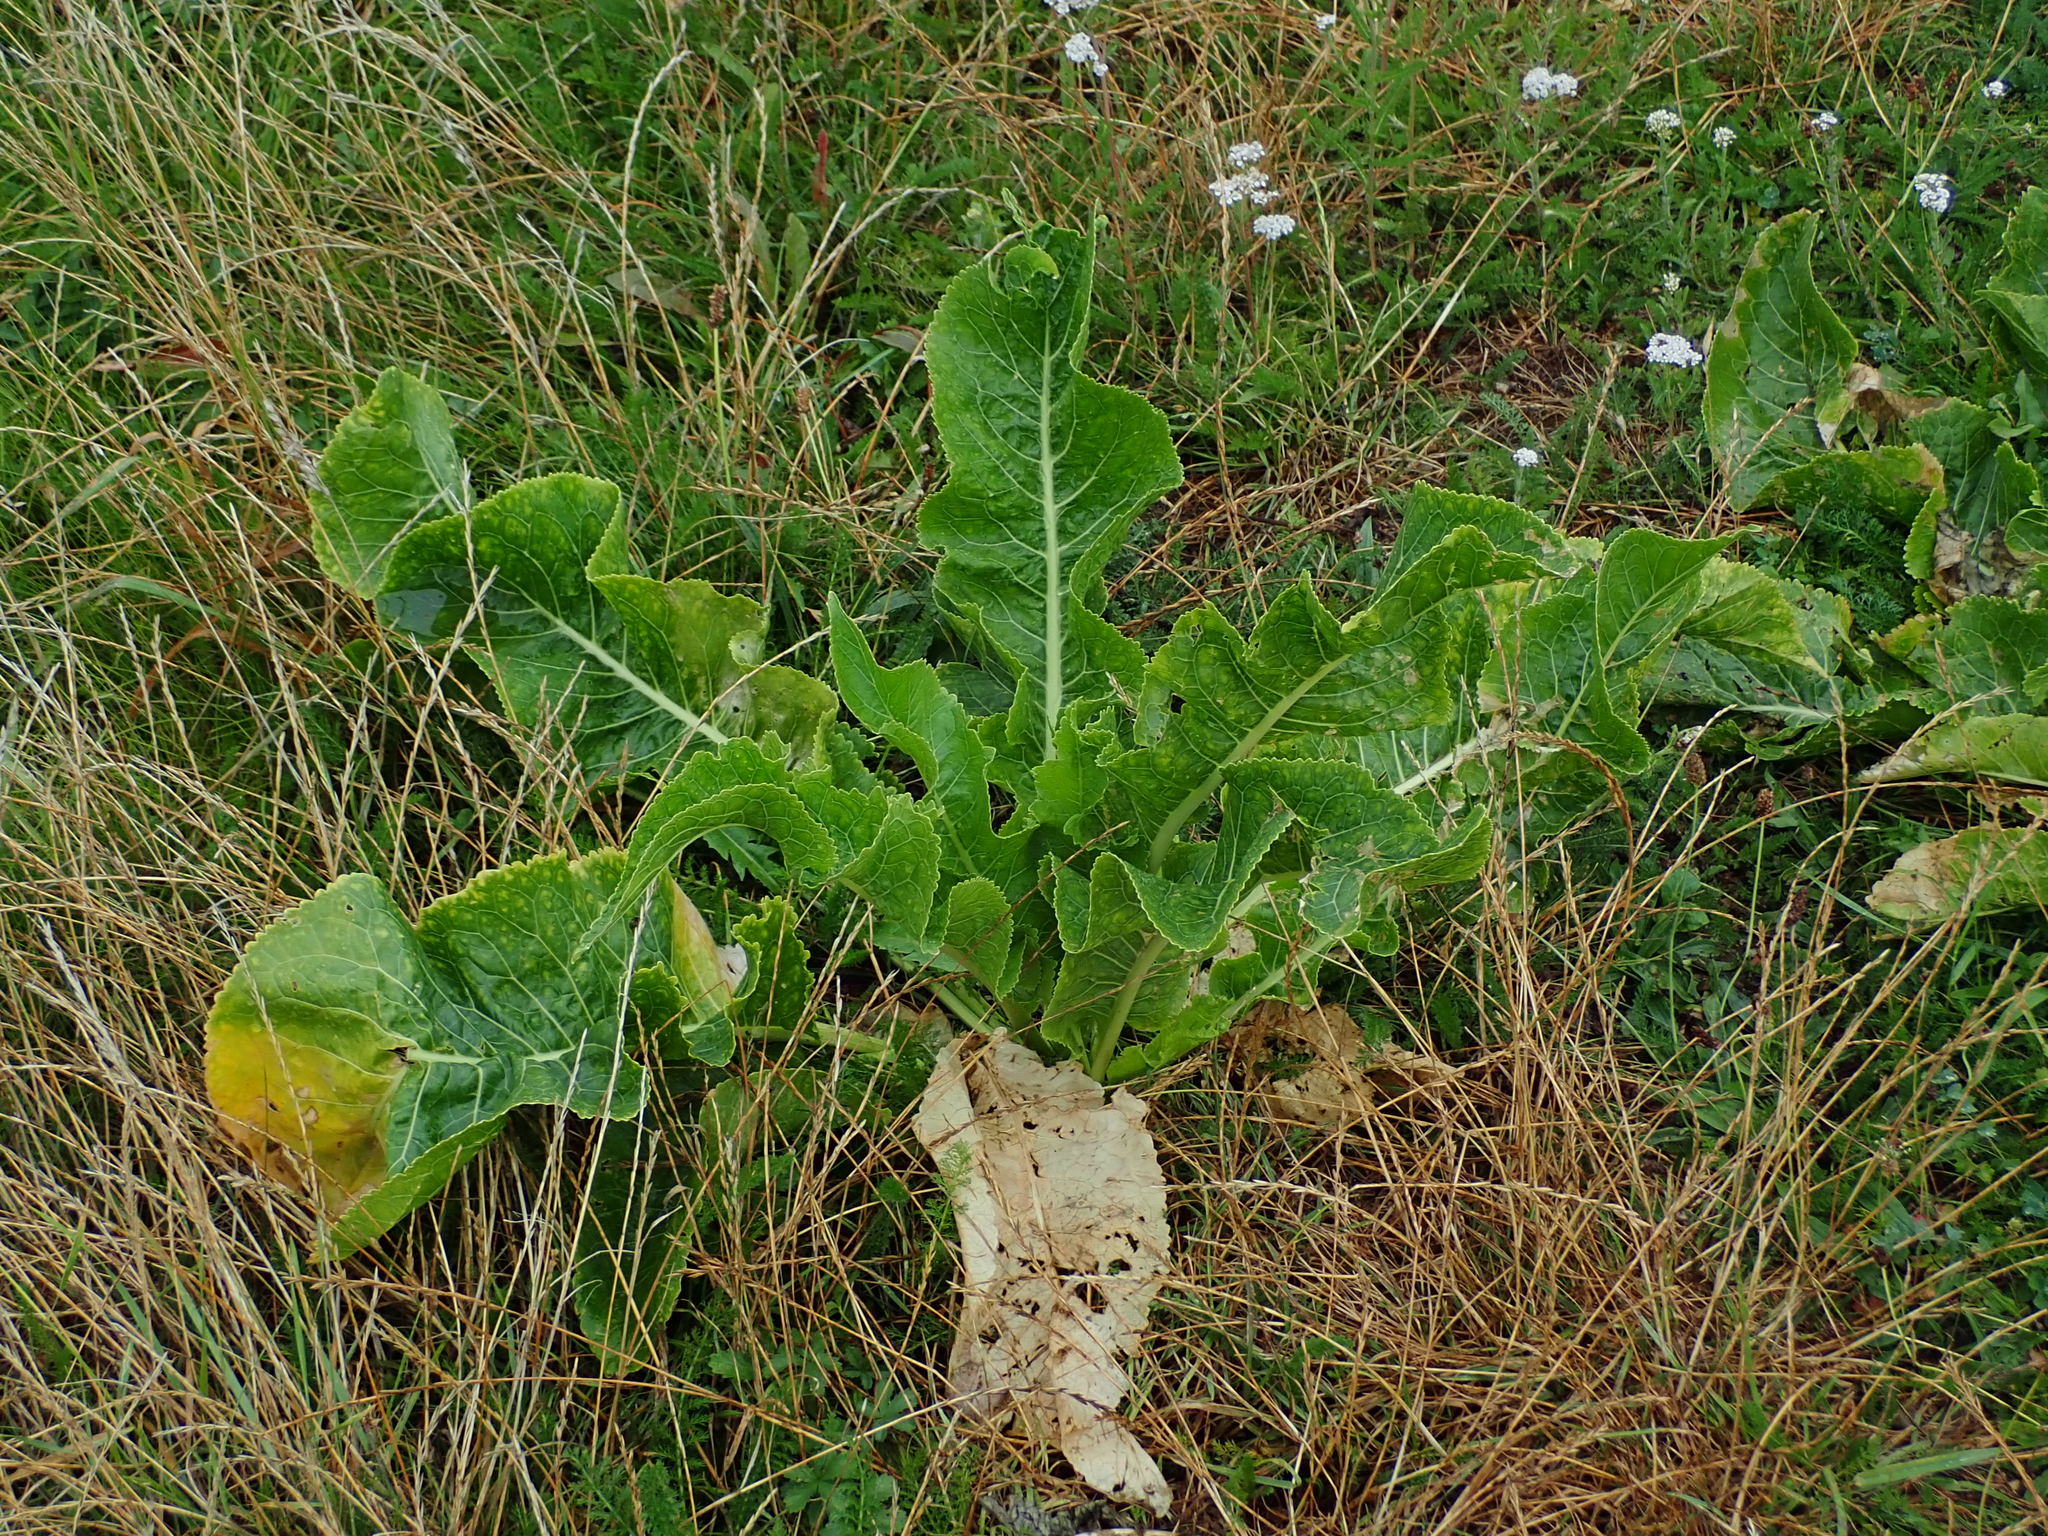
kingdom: Plantae
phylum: Tracheophyta
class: Magnoliopsida
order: Brassicales
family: Brassicaceae
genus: Armoracia
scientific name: Armoracia rusticana
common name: Horseradish
